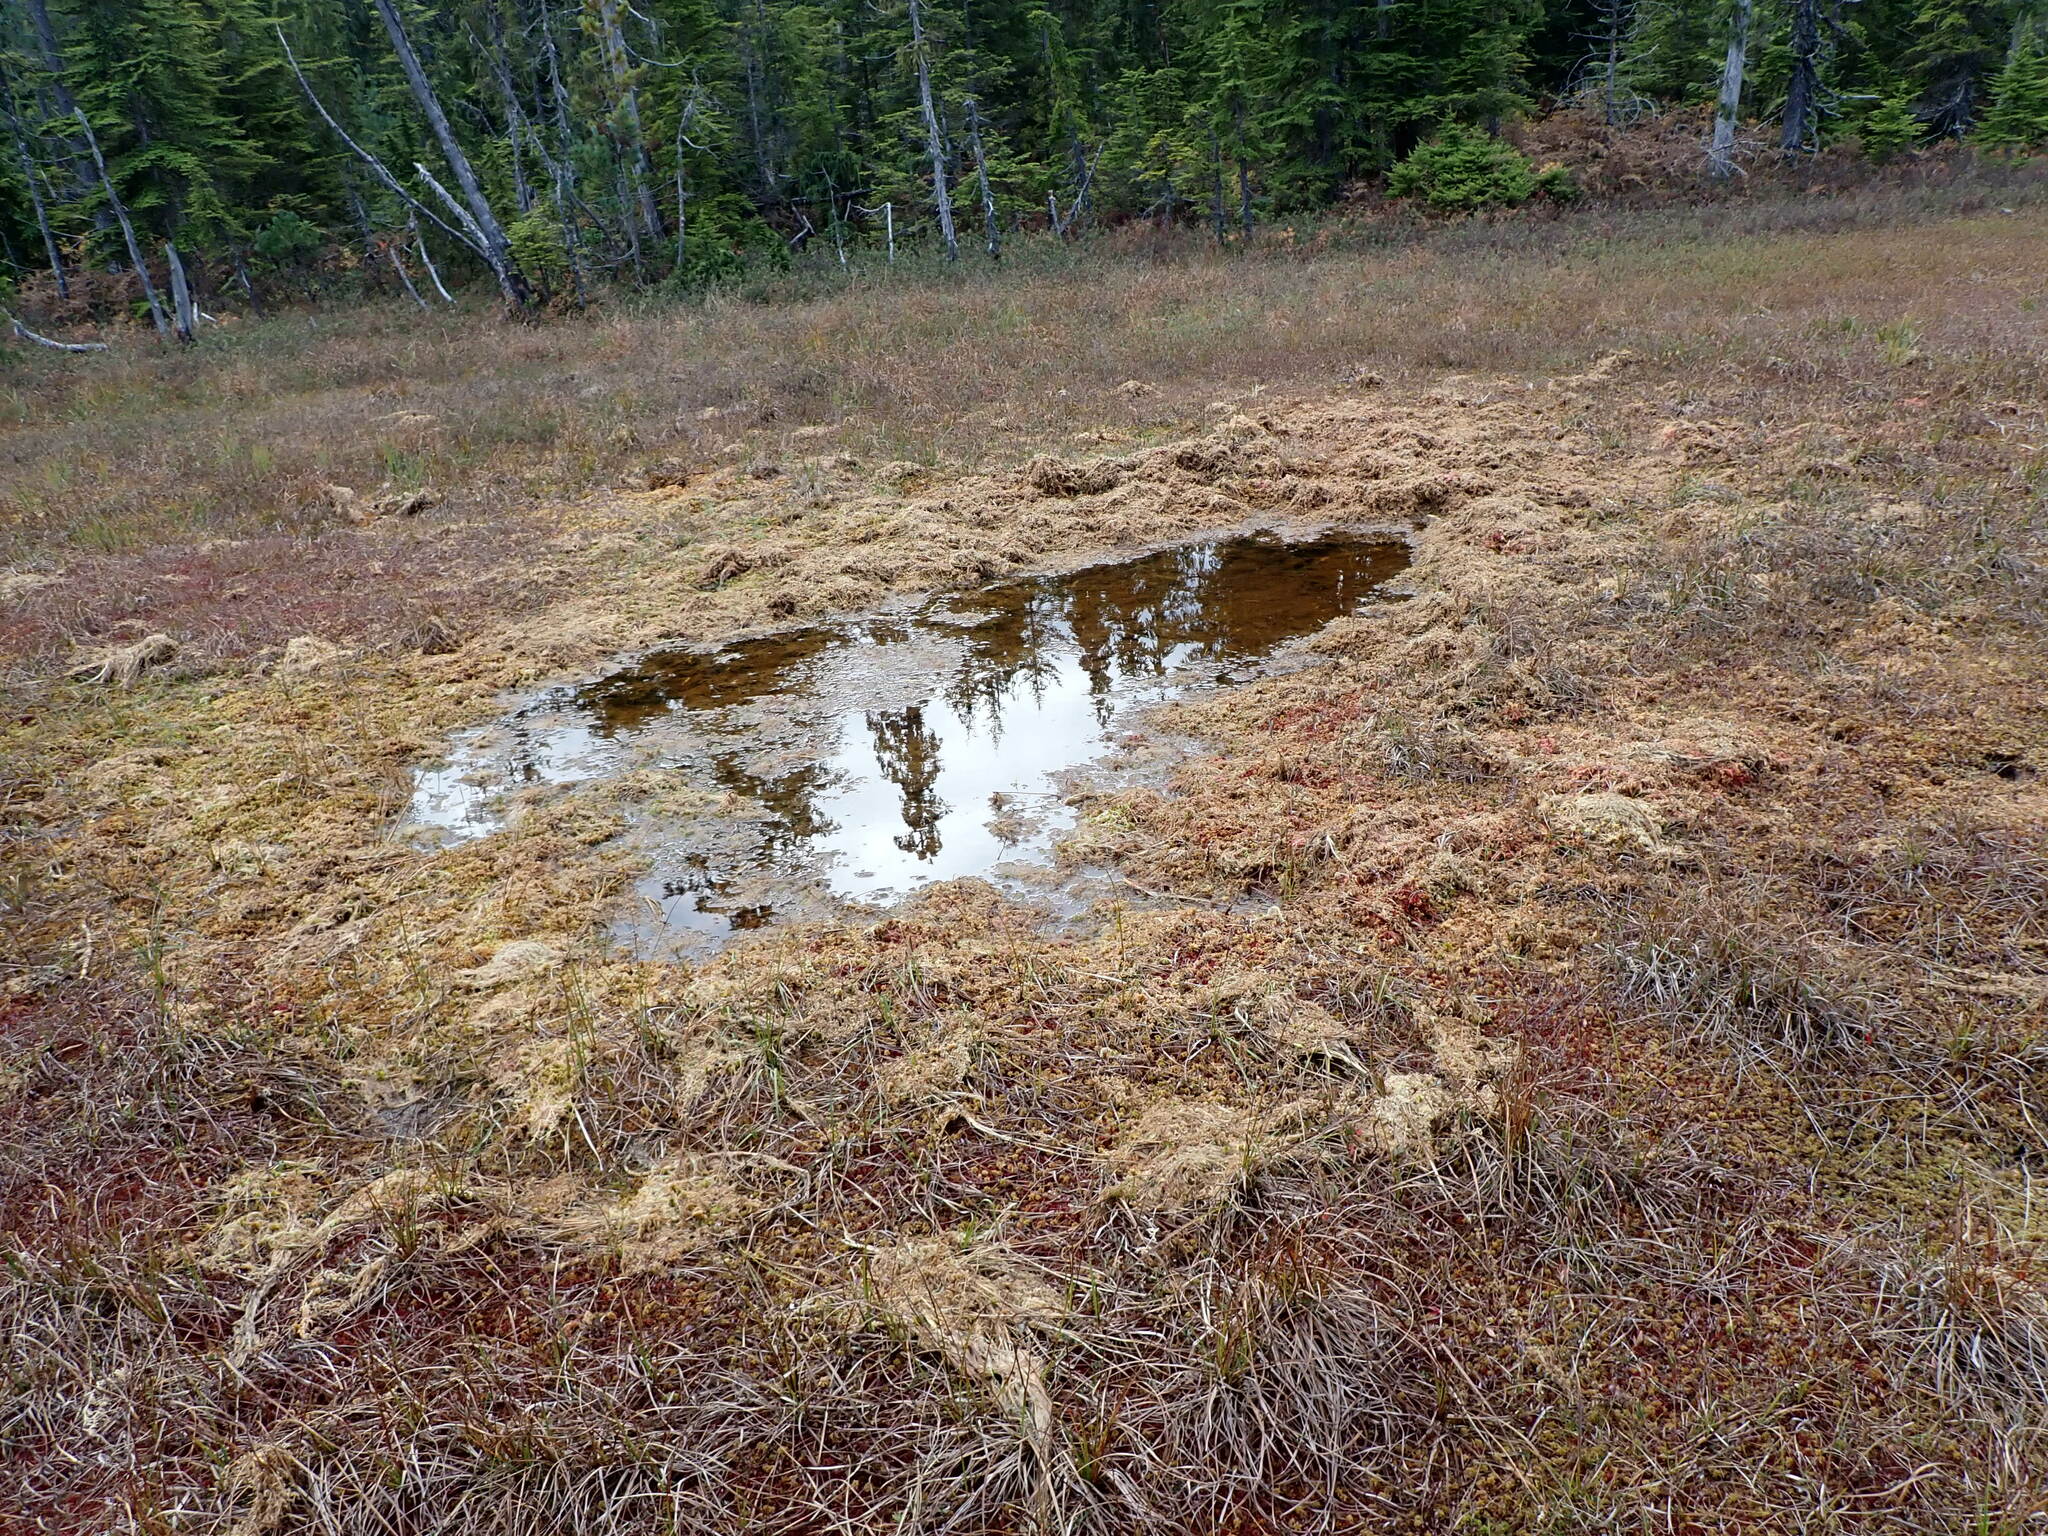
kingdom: Plantae
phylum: Bryophyta
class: Sphagnopsida
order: Sphagnales
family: Sphagnaceae
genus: Sphagnum
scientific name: Sphagnum papillosum
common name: Papillose peat moss
